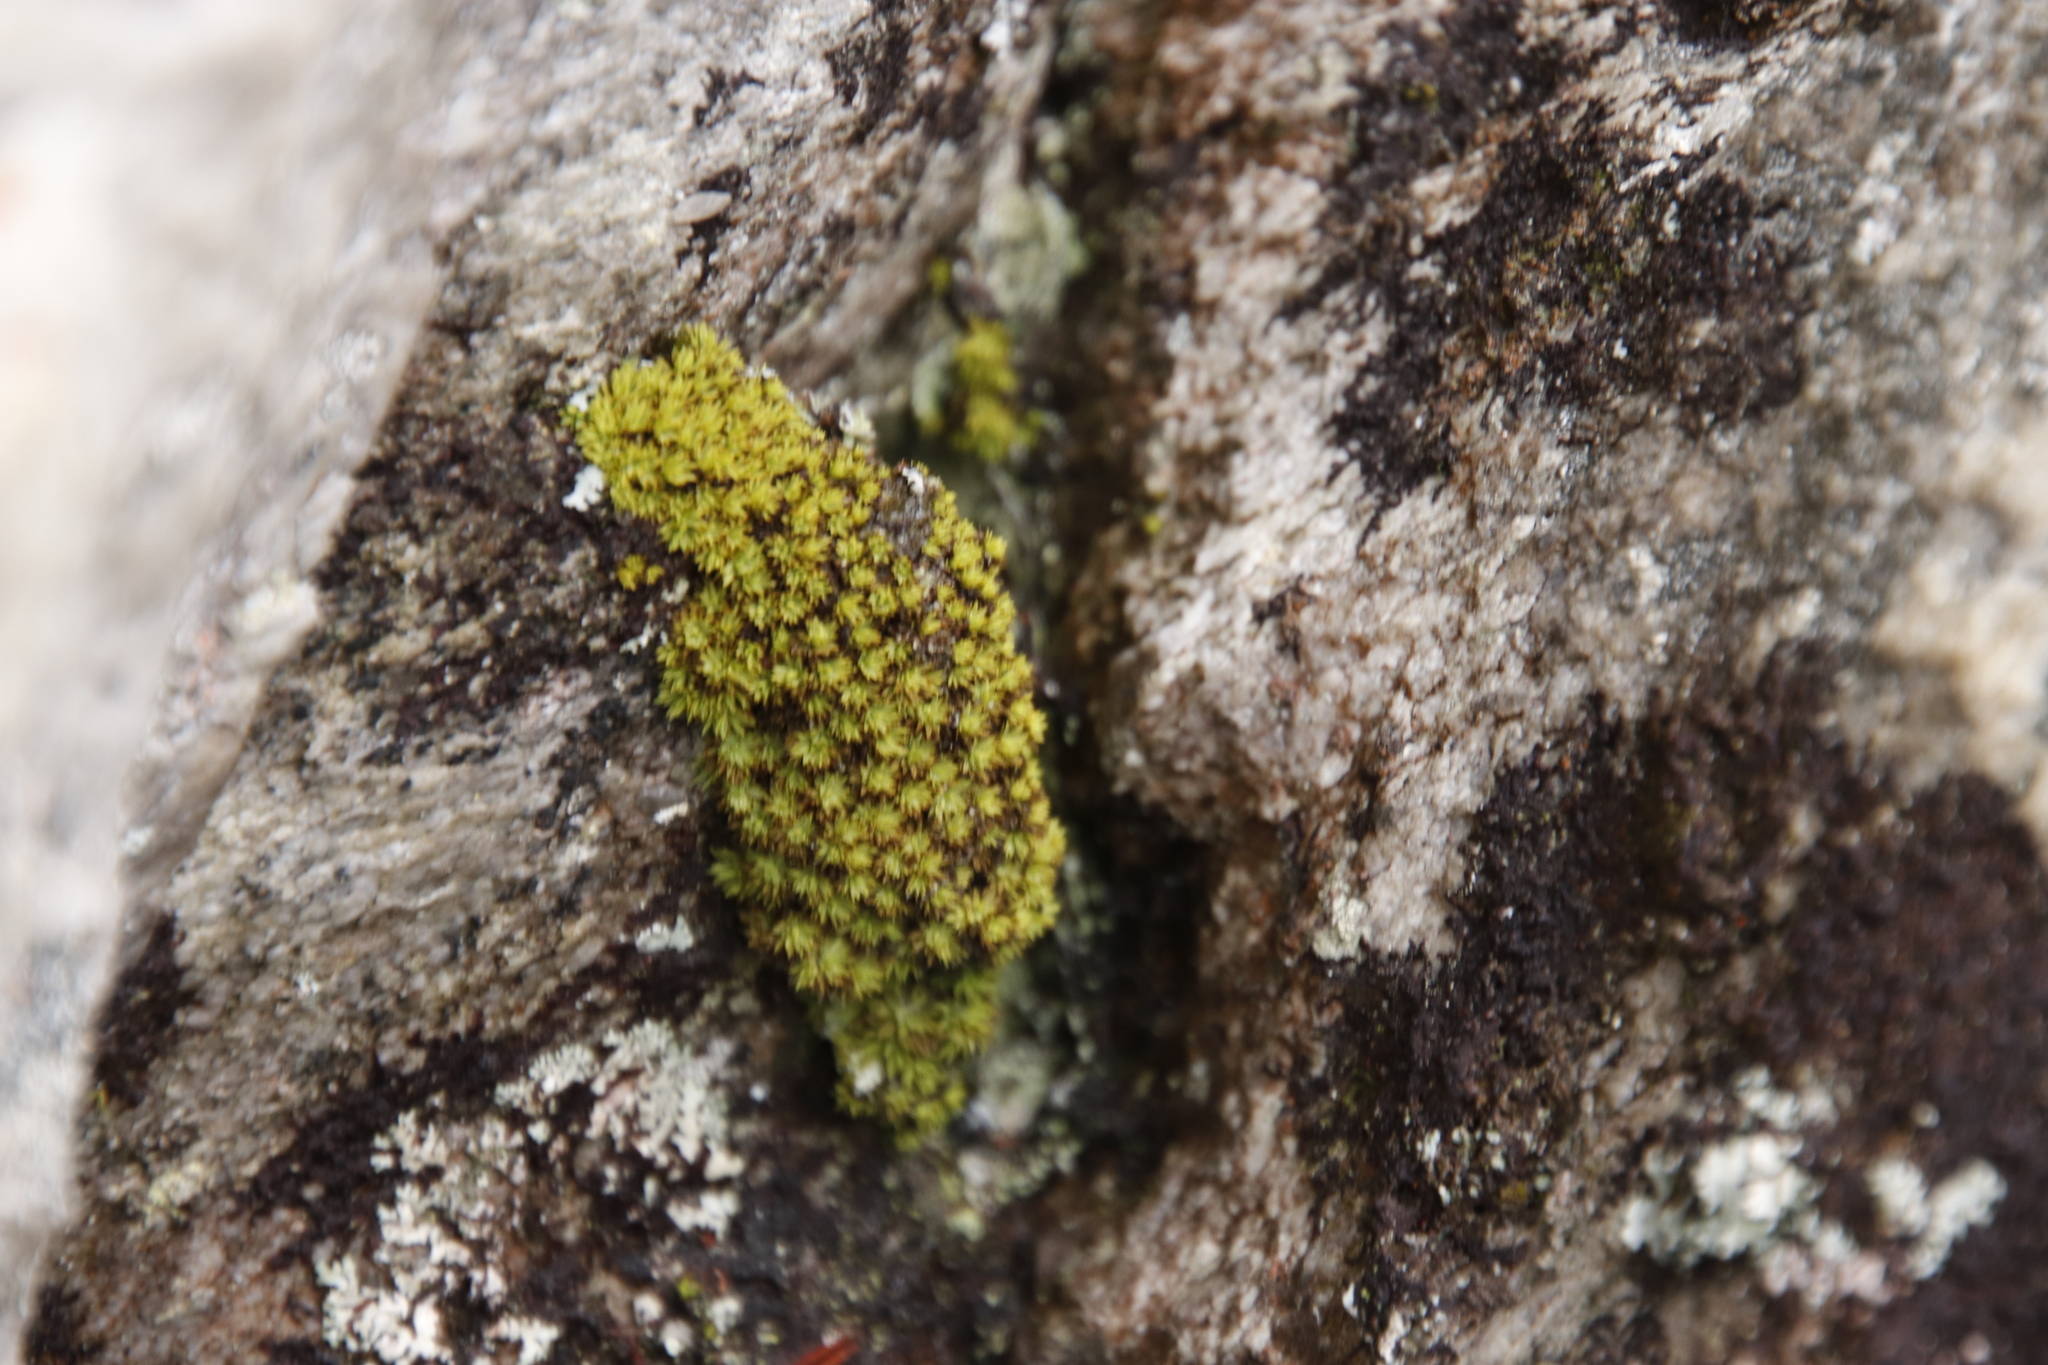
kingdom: Plantae
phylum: Bryophyta
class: Bryopsida
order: Pottiales
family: Pottiaceae
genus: Pseudocrossidium
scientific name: Pseudocrossidium crinitum
